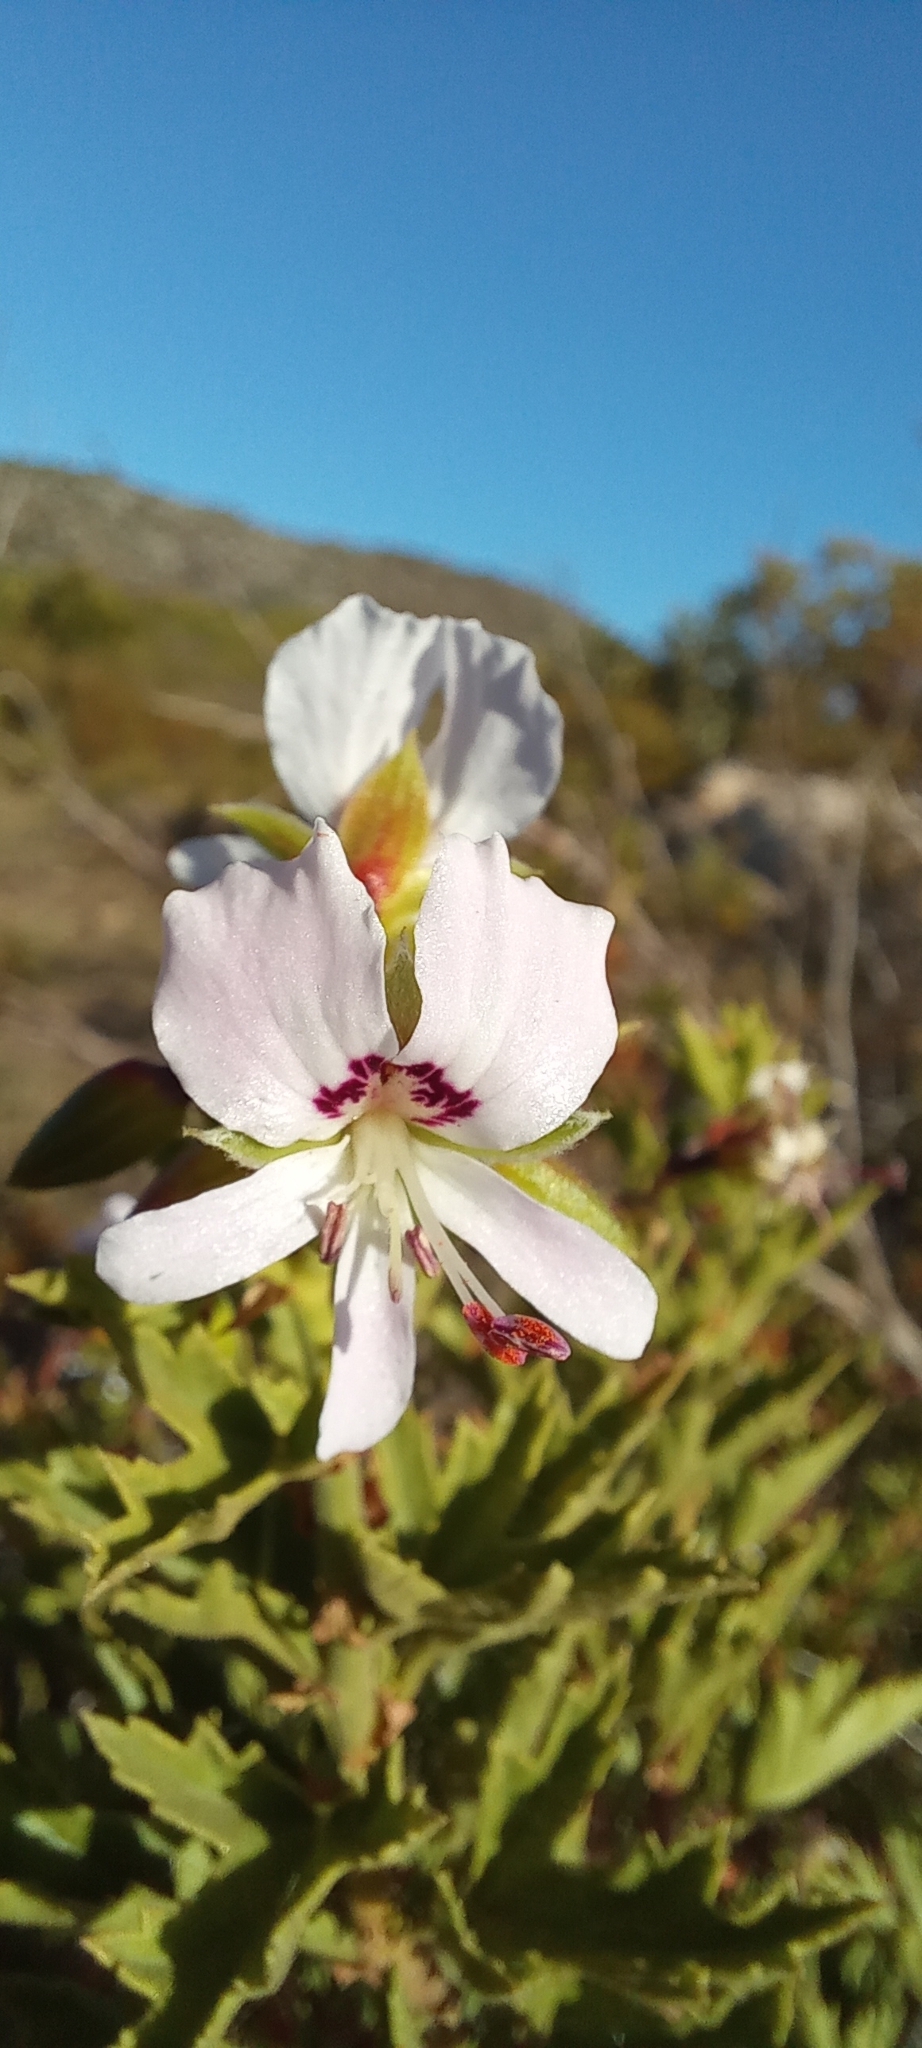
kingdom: Plantae
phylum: Tracheophyta
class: Magnoliopsida
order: Geraniales
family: Geraniaceae
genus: Pelargonium
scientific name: Pelargonium scabrum
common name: Apricot geranium
